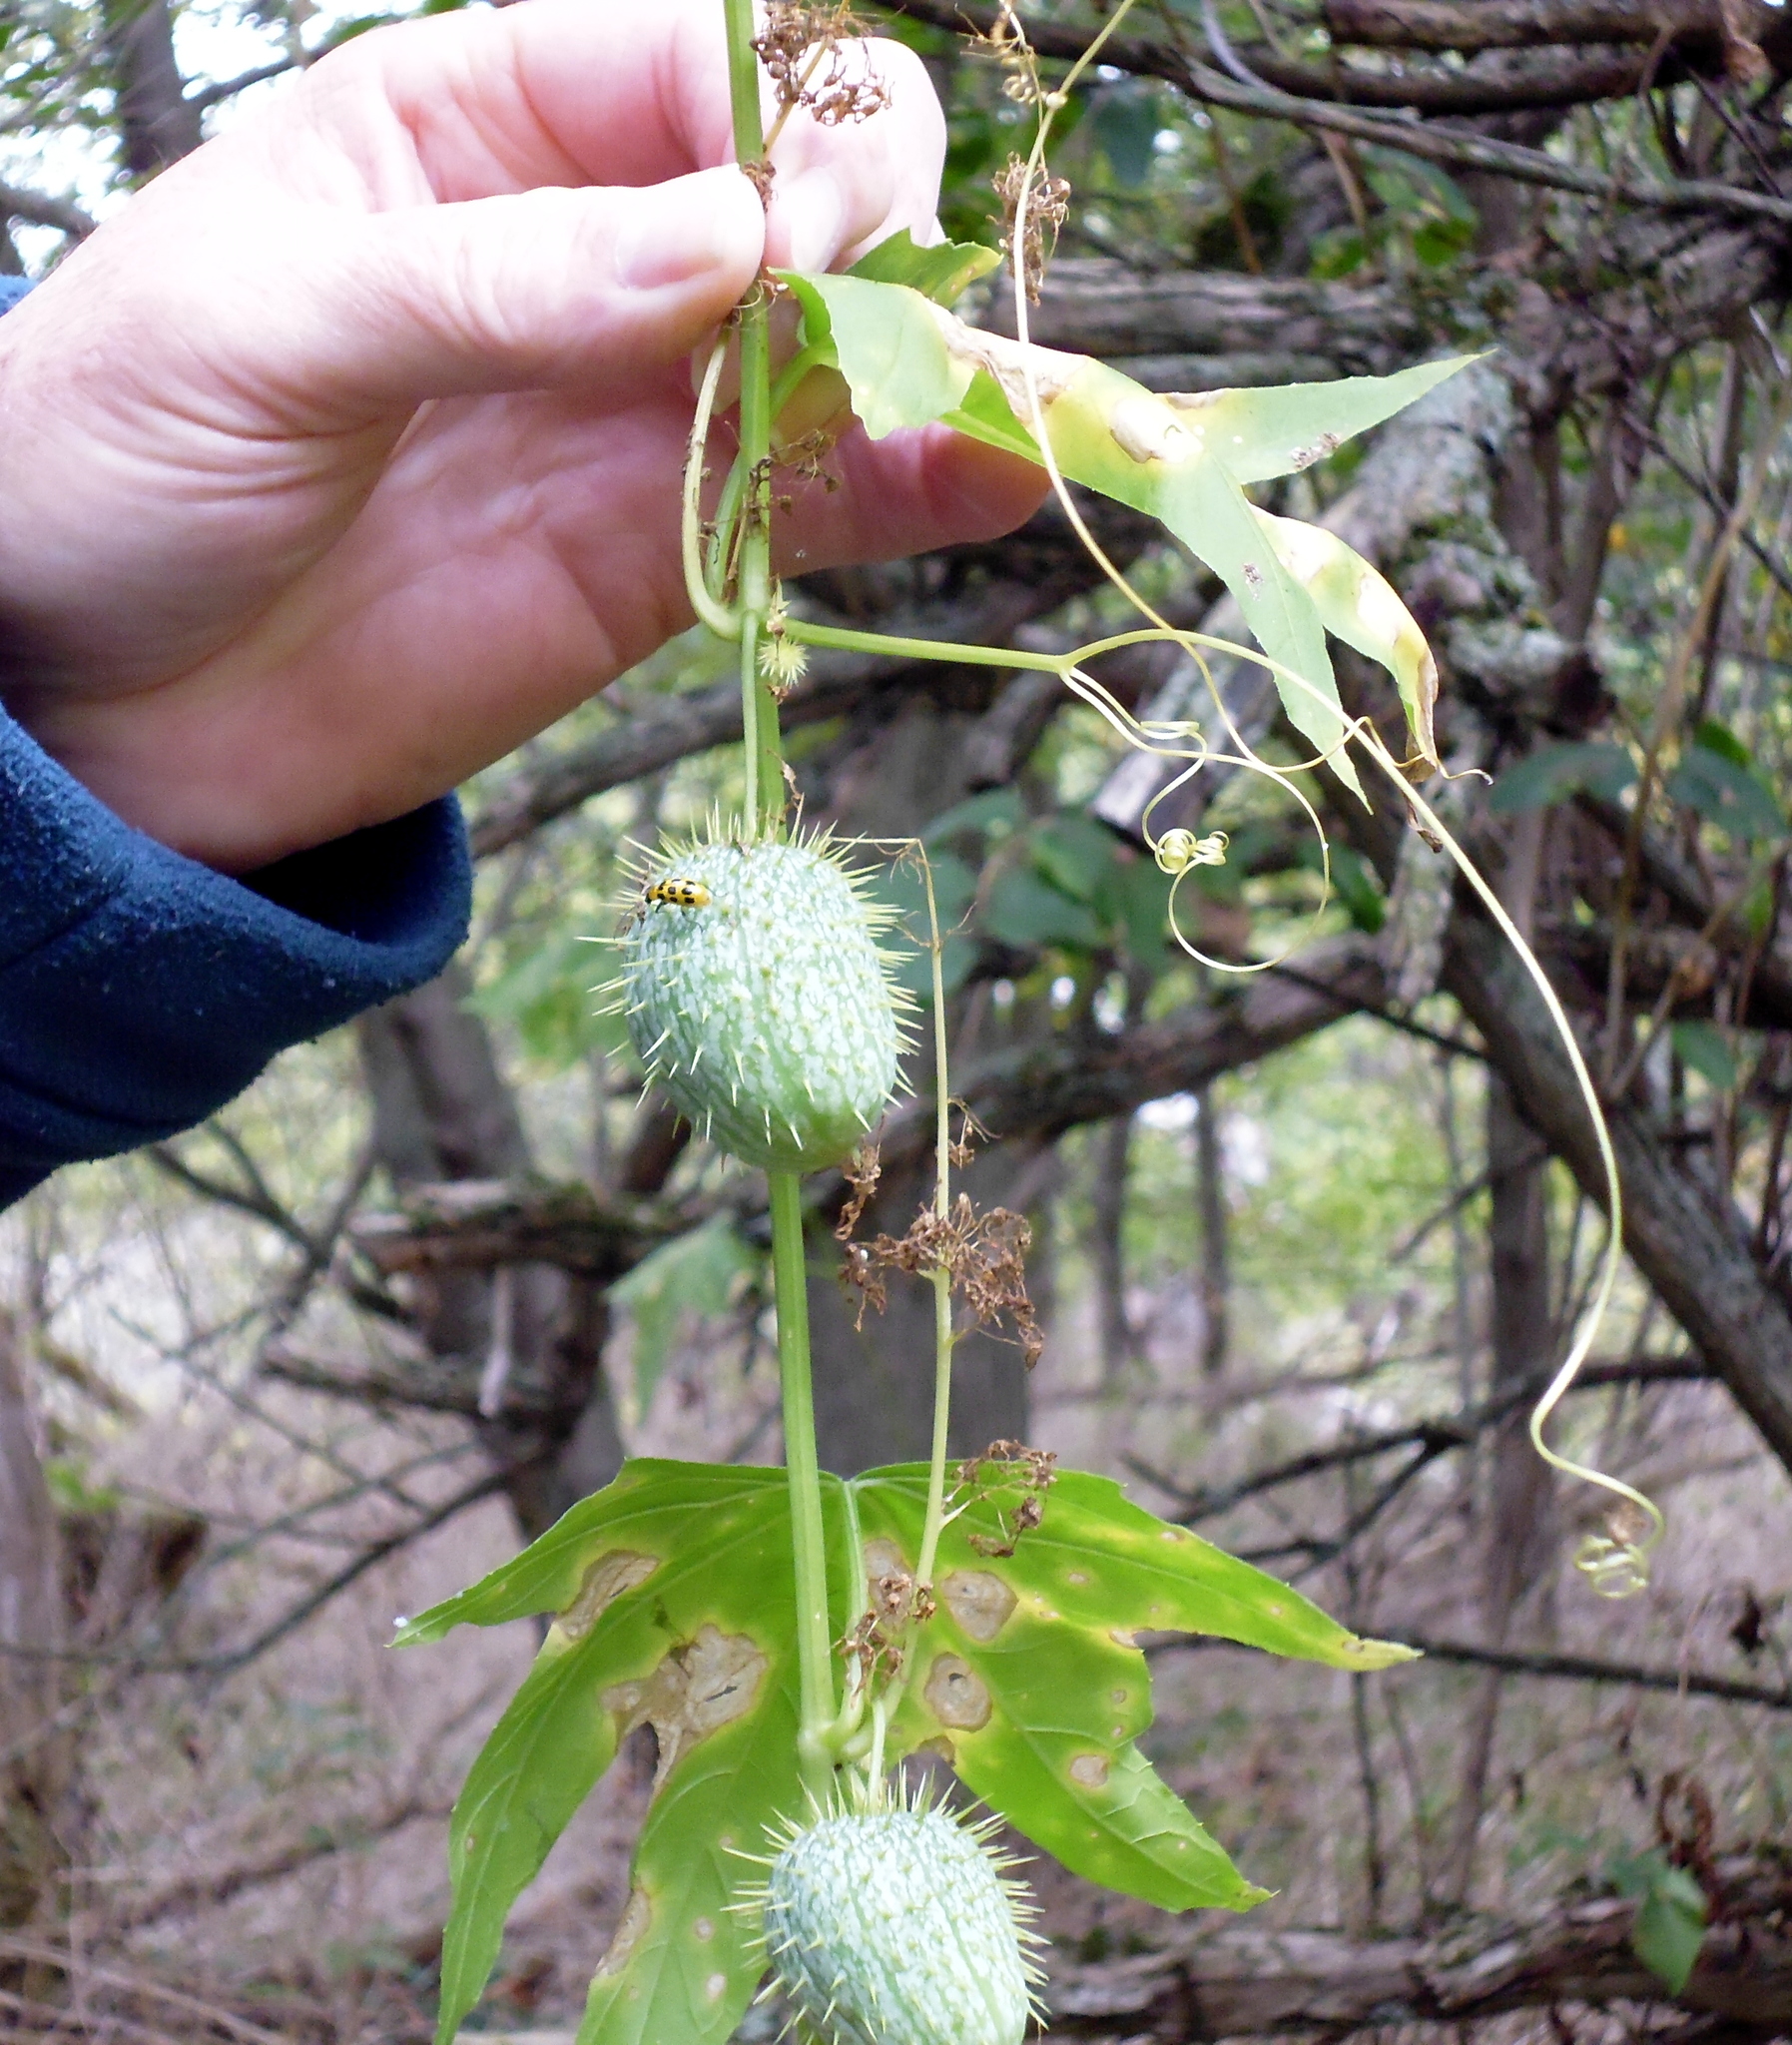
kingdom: Plantae
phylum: Tracheophyta
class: Magnoliopsida
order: Cucurbitales
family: Cucurbitaceae
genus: Echinocystis
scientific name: Echinocystis lobata
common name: Wild cucumber
